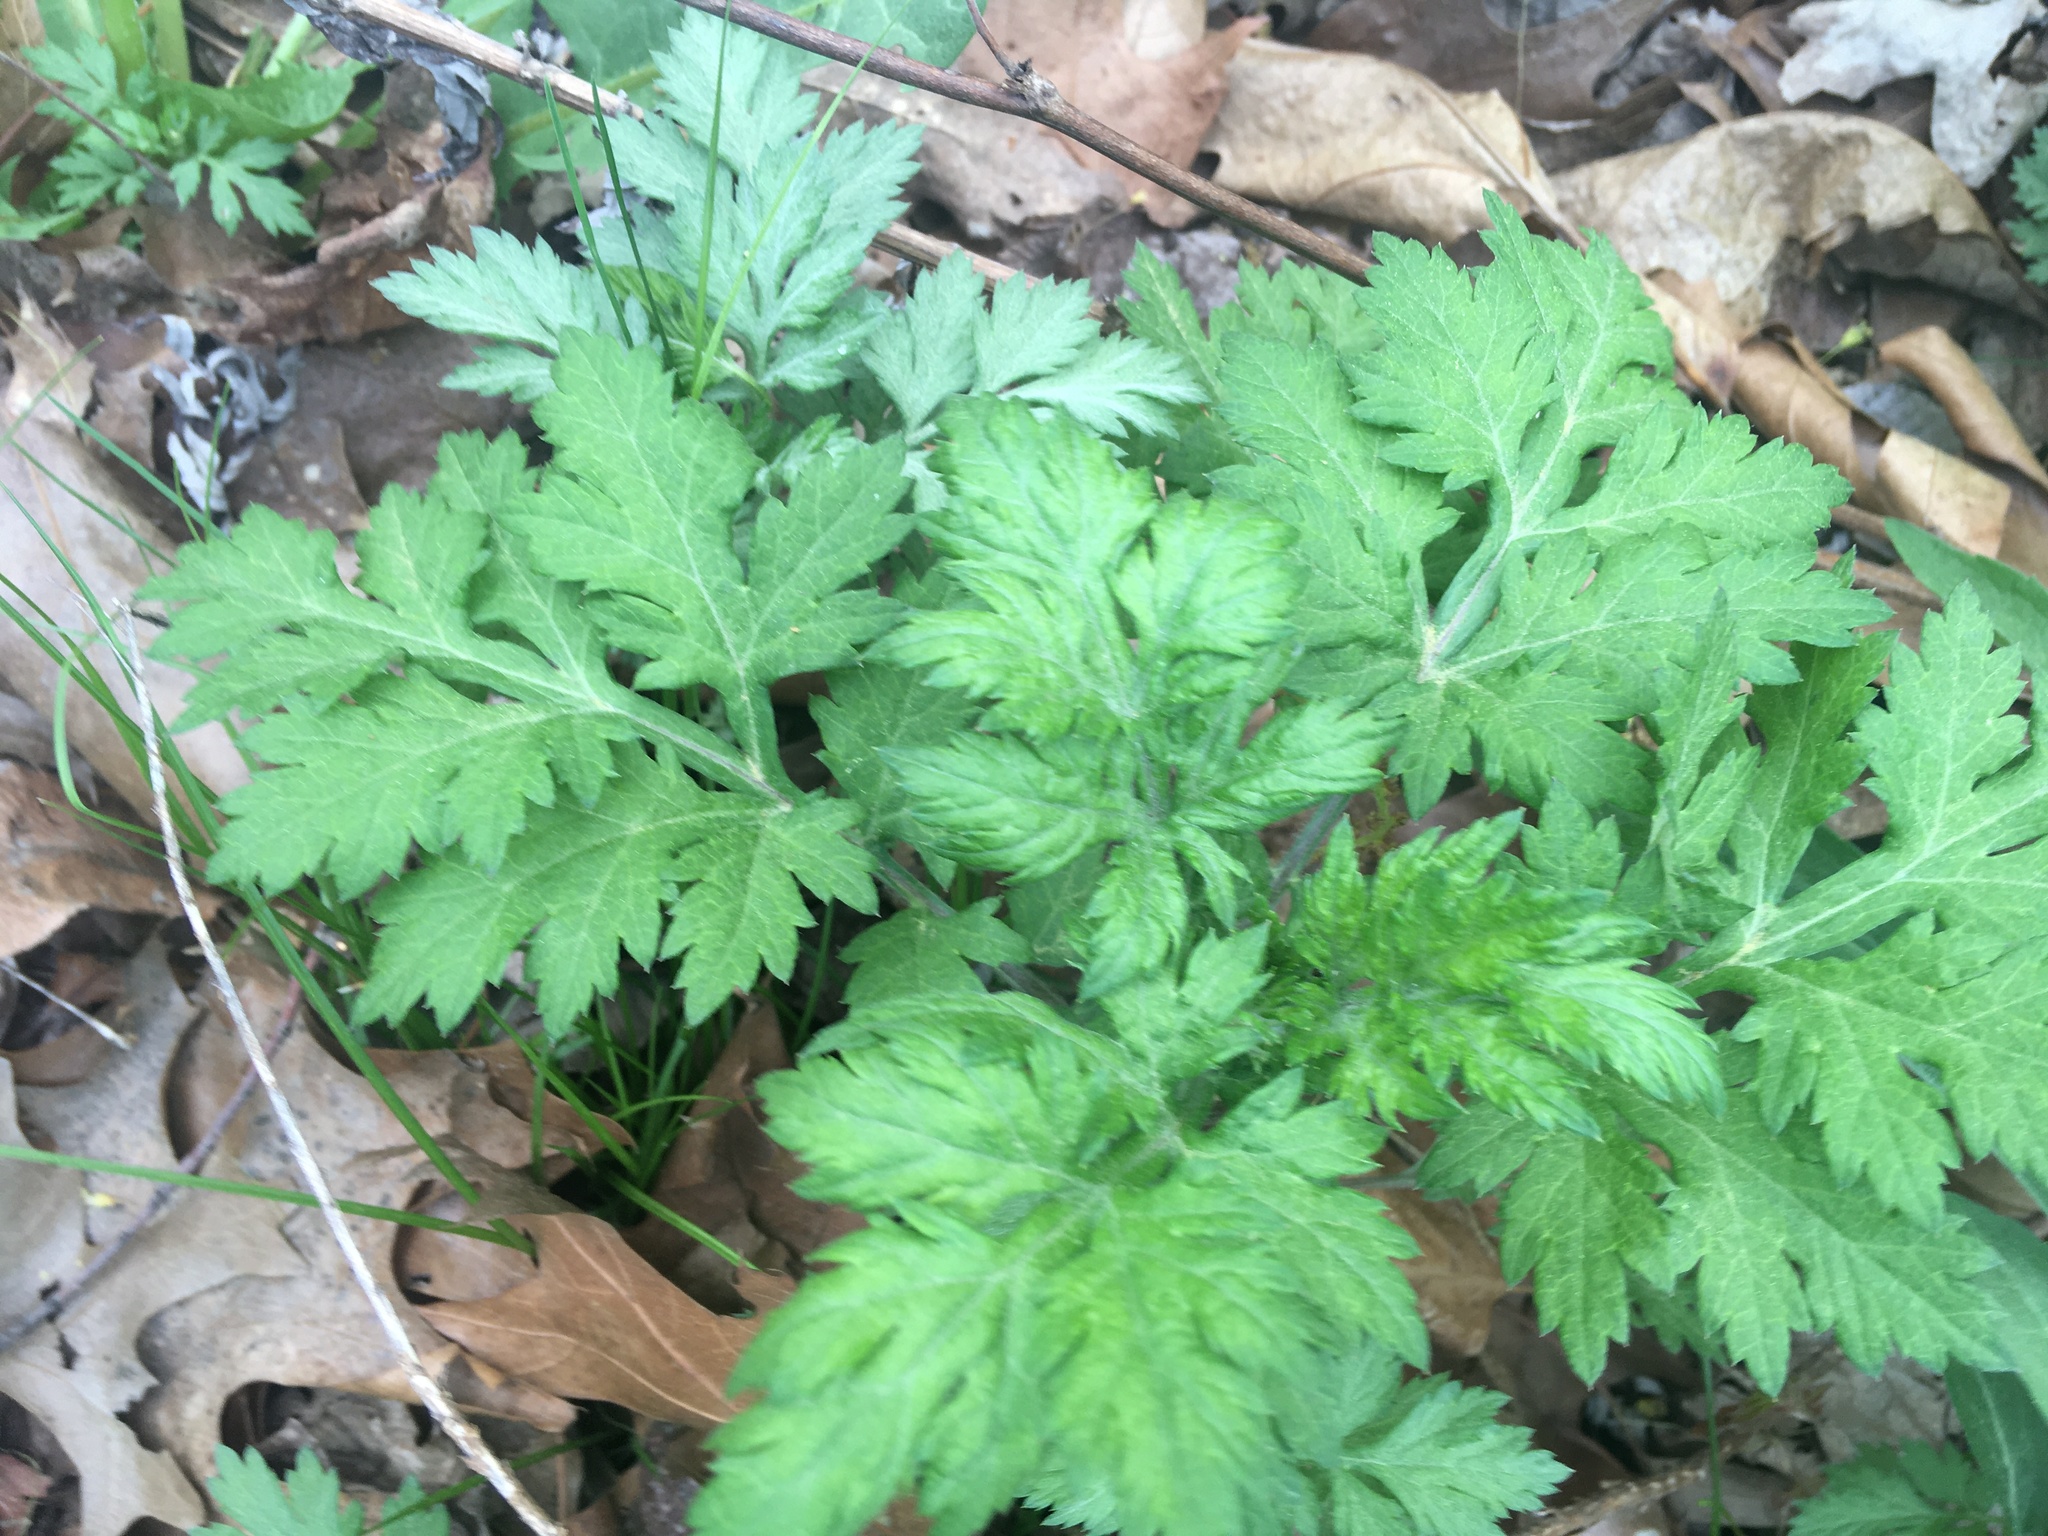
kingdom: Plantae
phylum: Tracheophyta
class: Magnoliopsida
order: Asterales
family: Asteraceae
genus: Artemisia
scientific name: Artemisia vulgaris
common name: Mugwort
